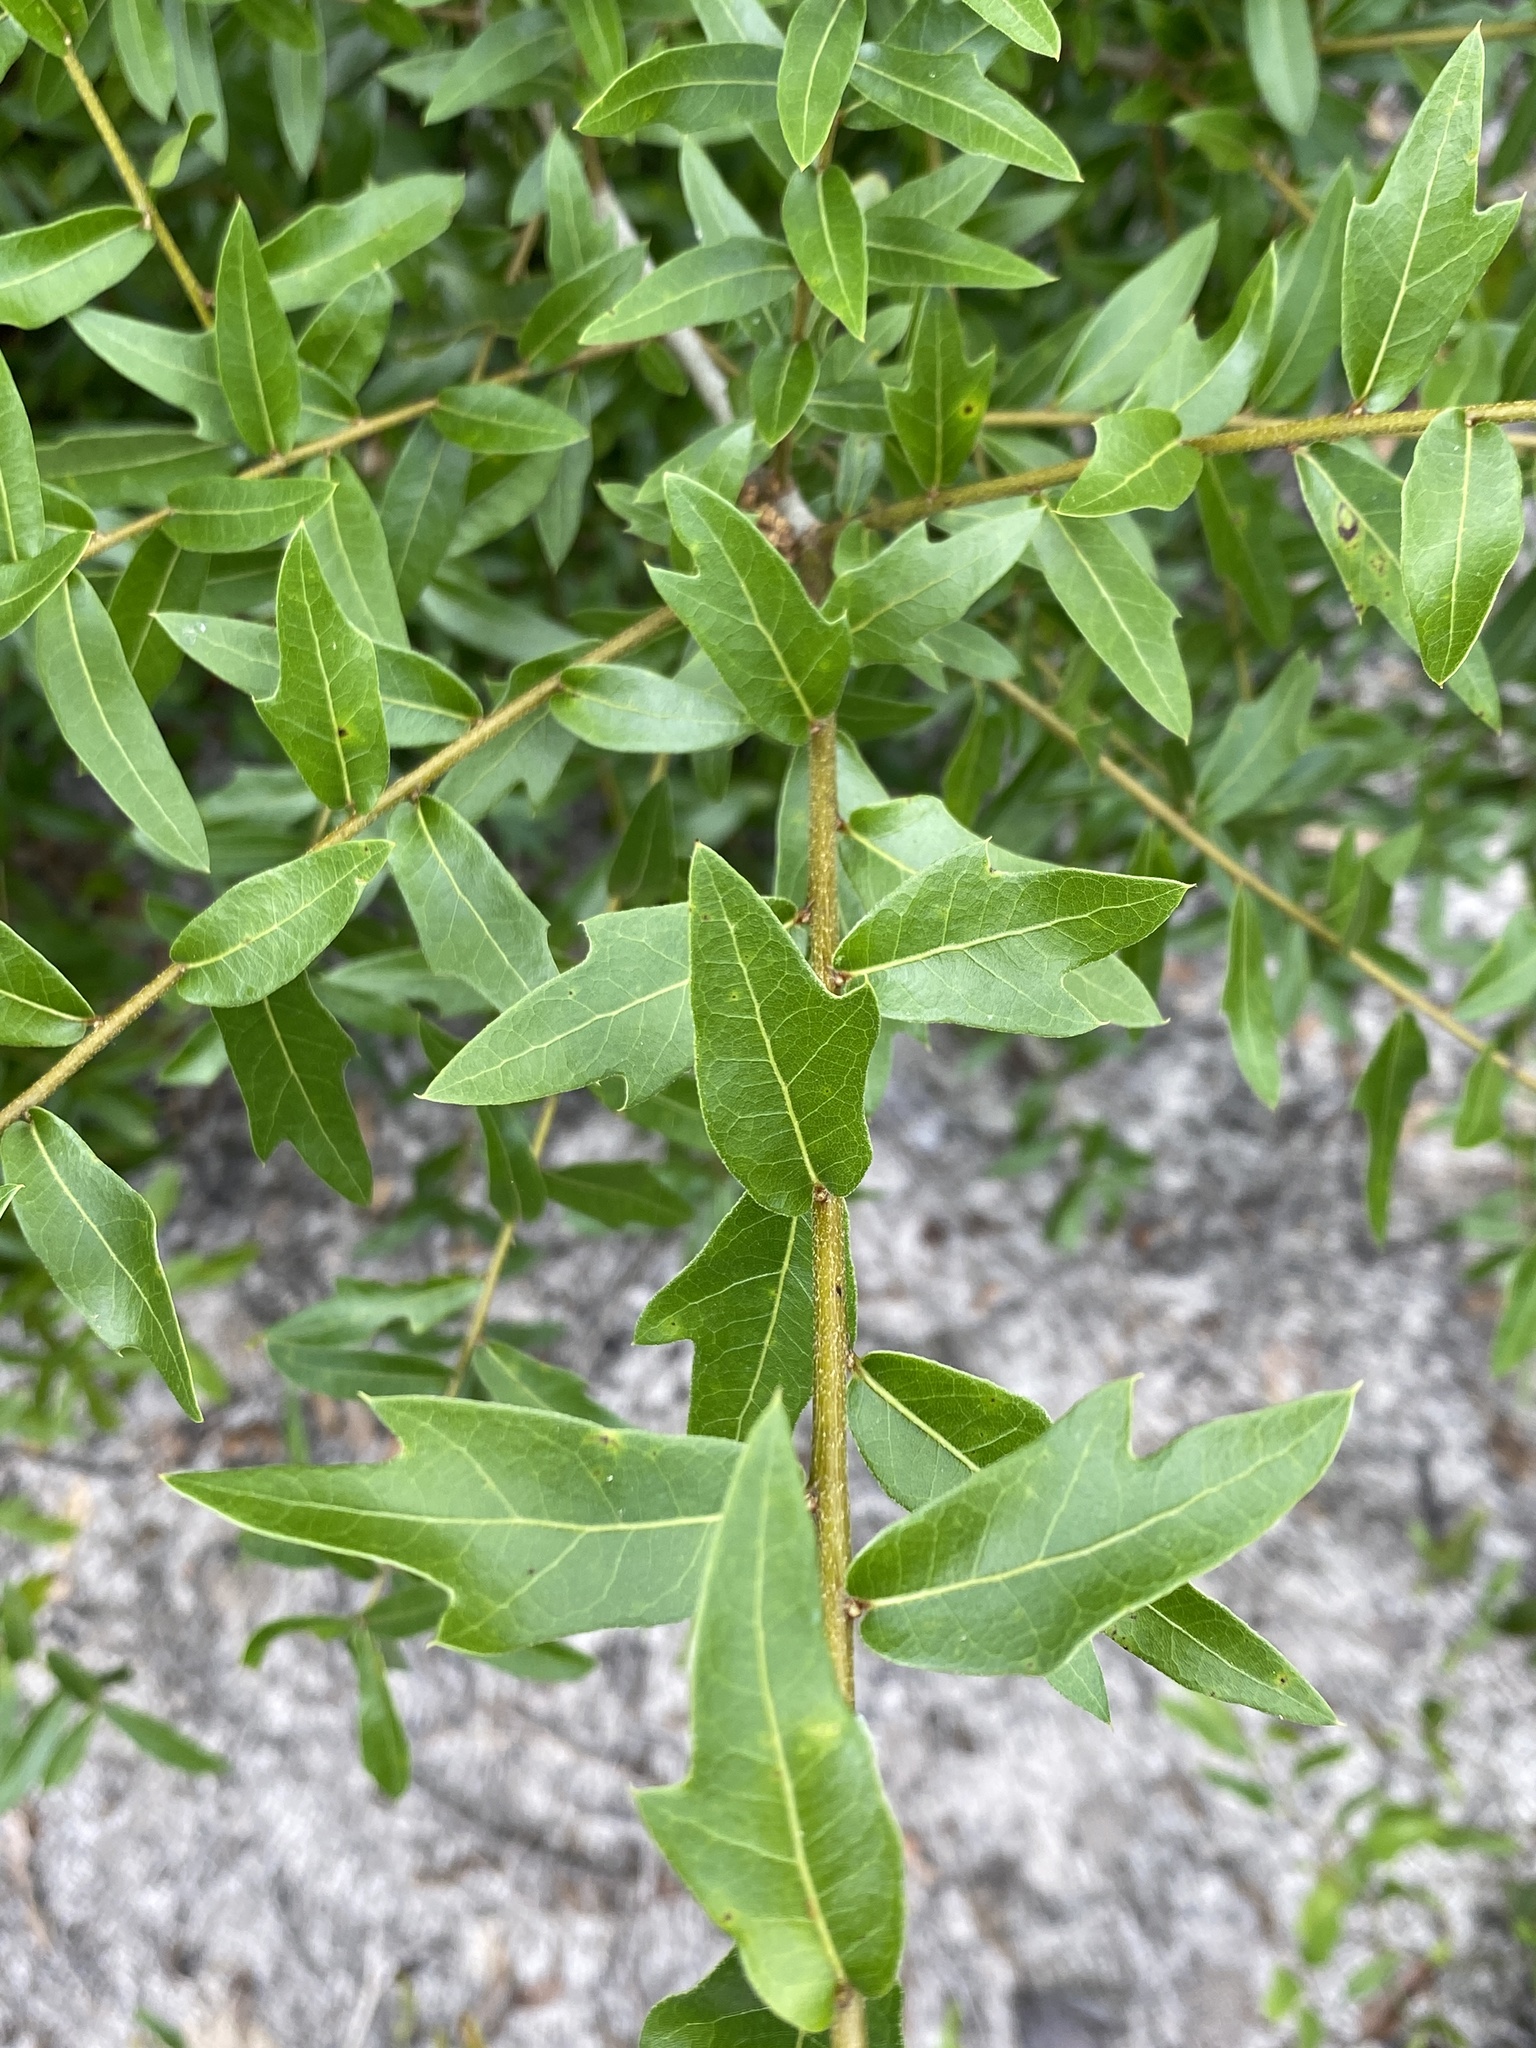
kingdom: Plantae
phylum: Tracheophyta
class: Magnoliopsida
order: Fagales
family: Fagaceae
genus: Quercus
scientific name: Quercus hemisphaerica
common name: Darlington oak
